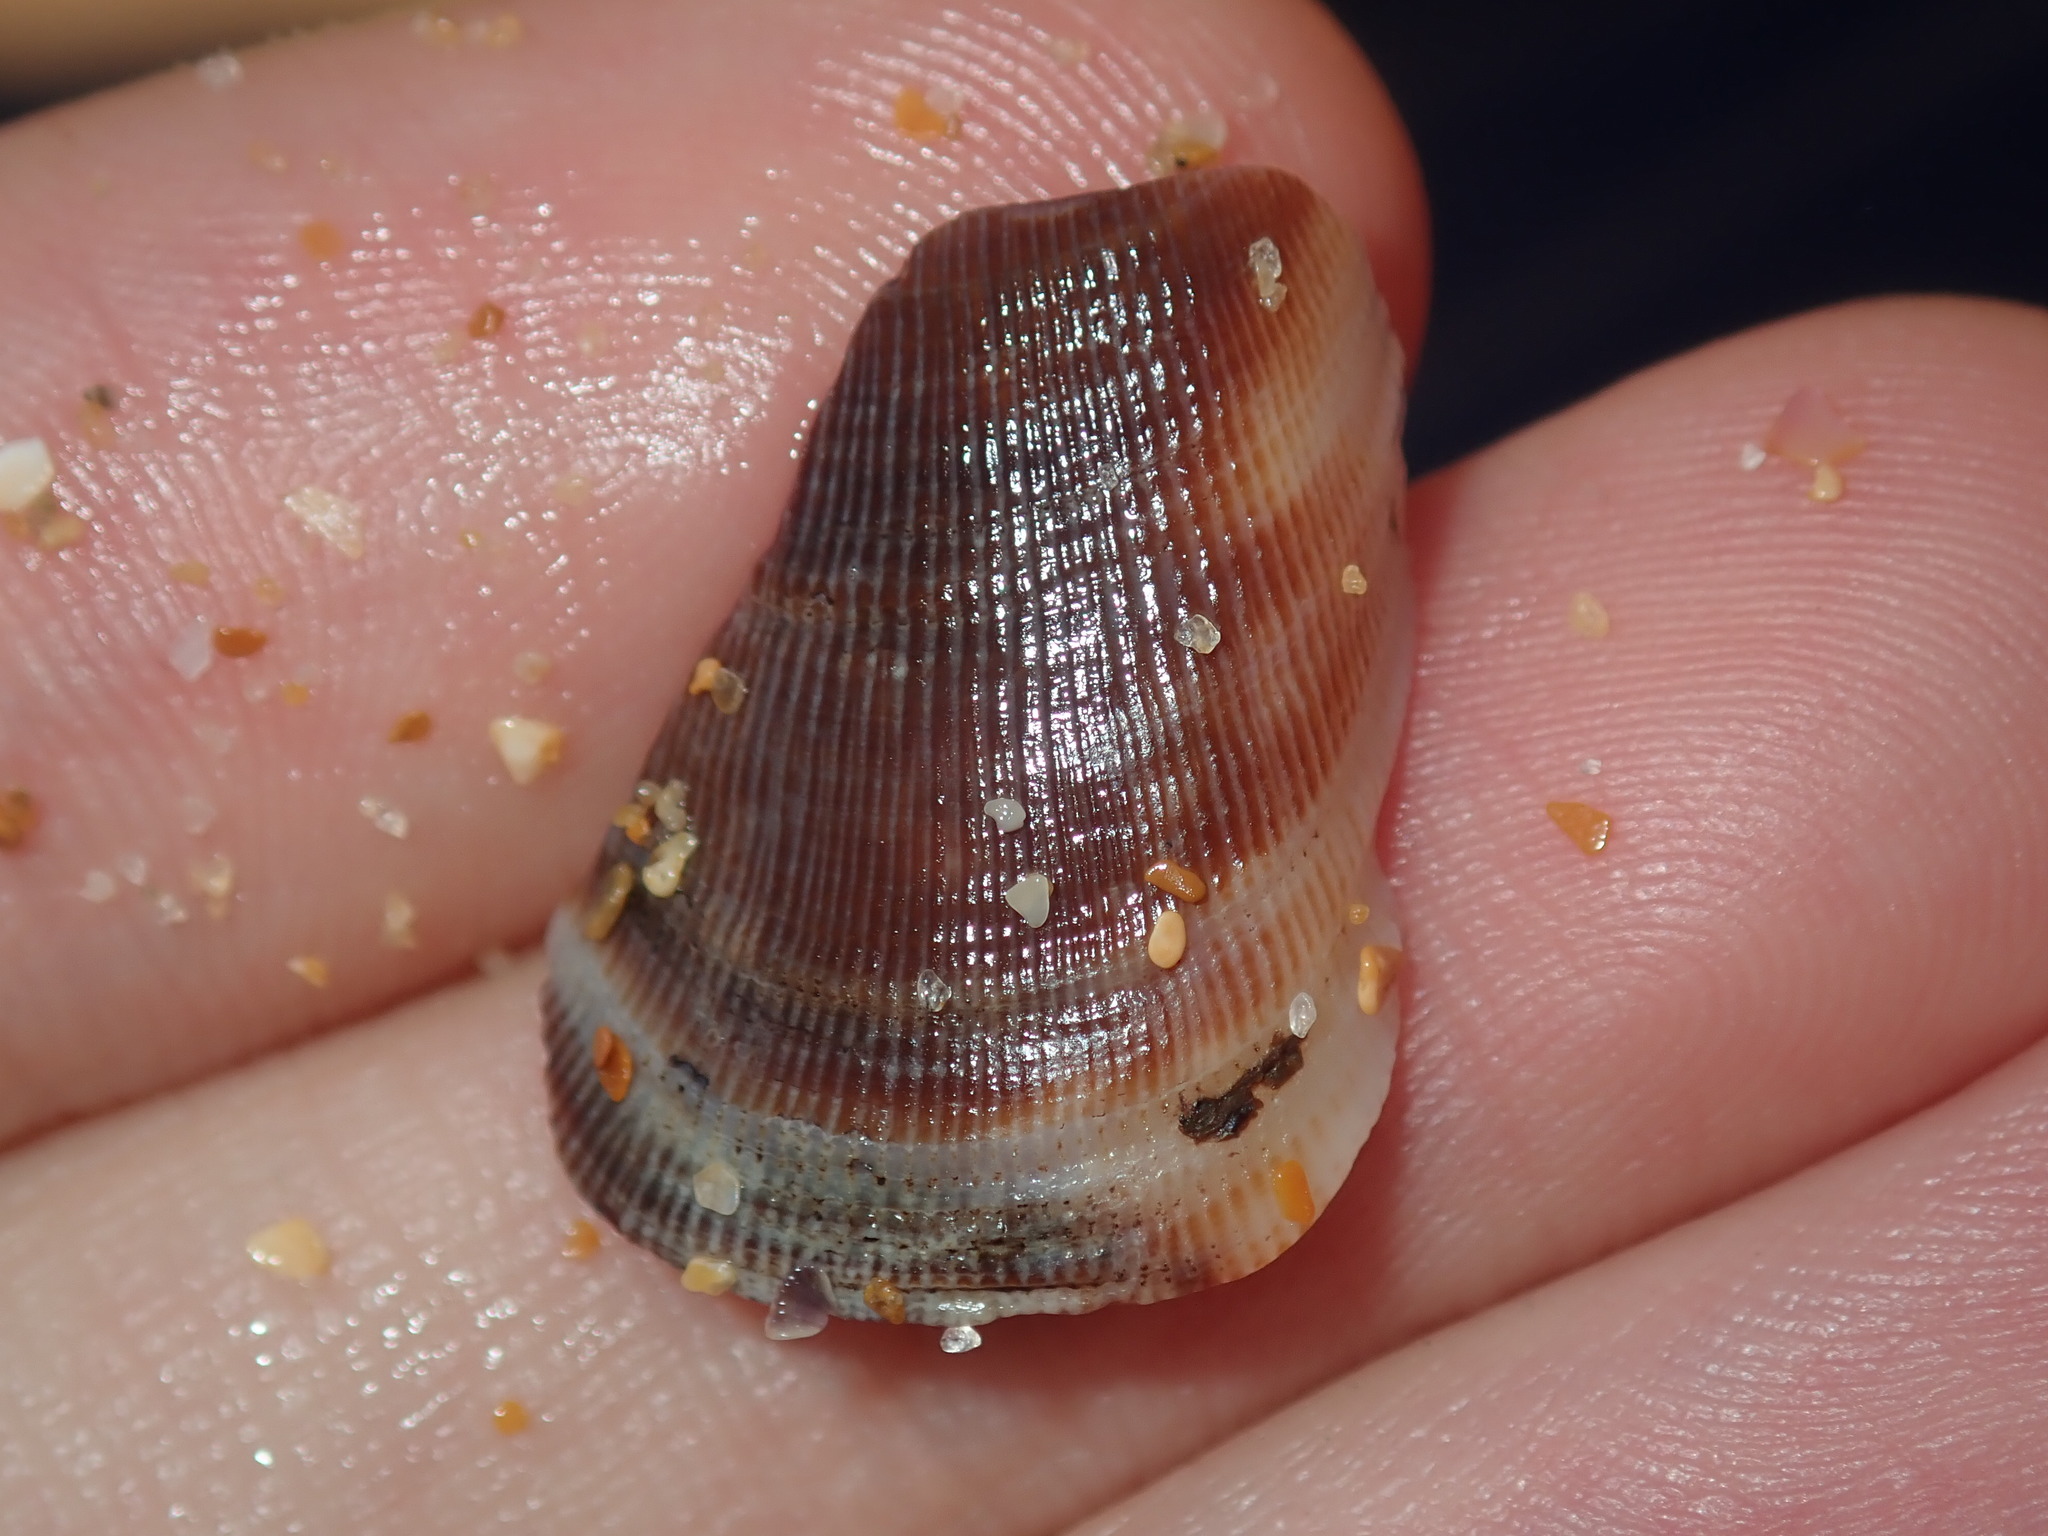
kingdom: Animalia
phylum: Mollusca
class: Bivalvia
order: Mytilida
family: Mytilidae
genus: Trichomya
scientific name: Trichomya hirsuta
